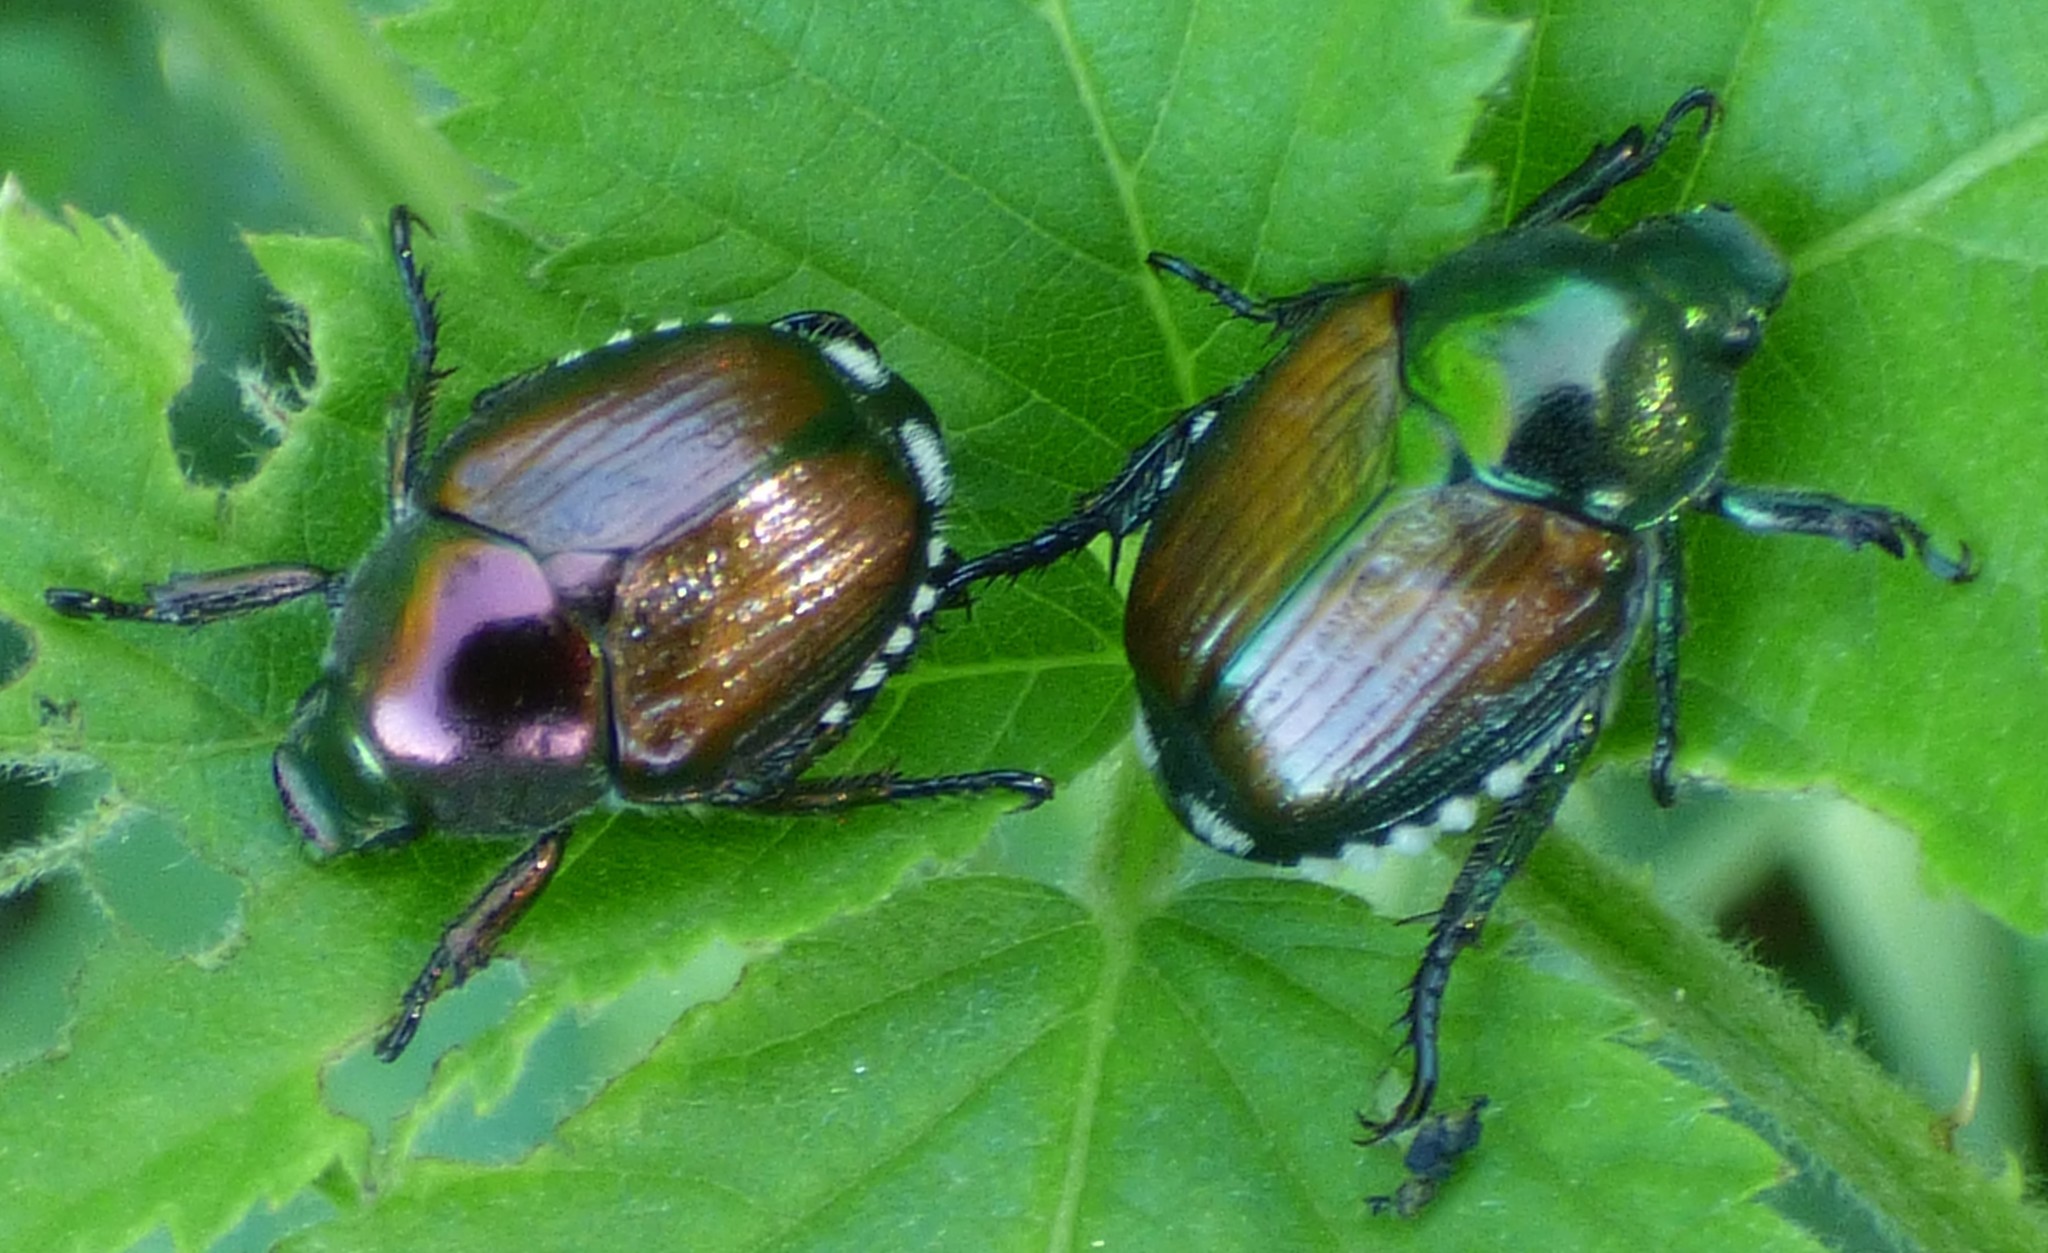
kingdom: Animalia
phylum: Arthropoda
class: Insecta
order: Coleoptera
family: Scarabaeidae
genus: Popillia
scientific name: Popillia japonica
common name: Japanese beetle
